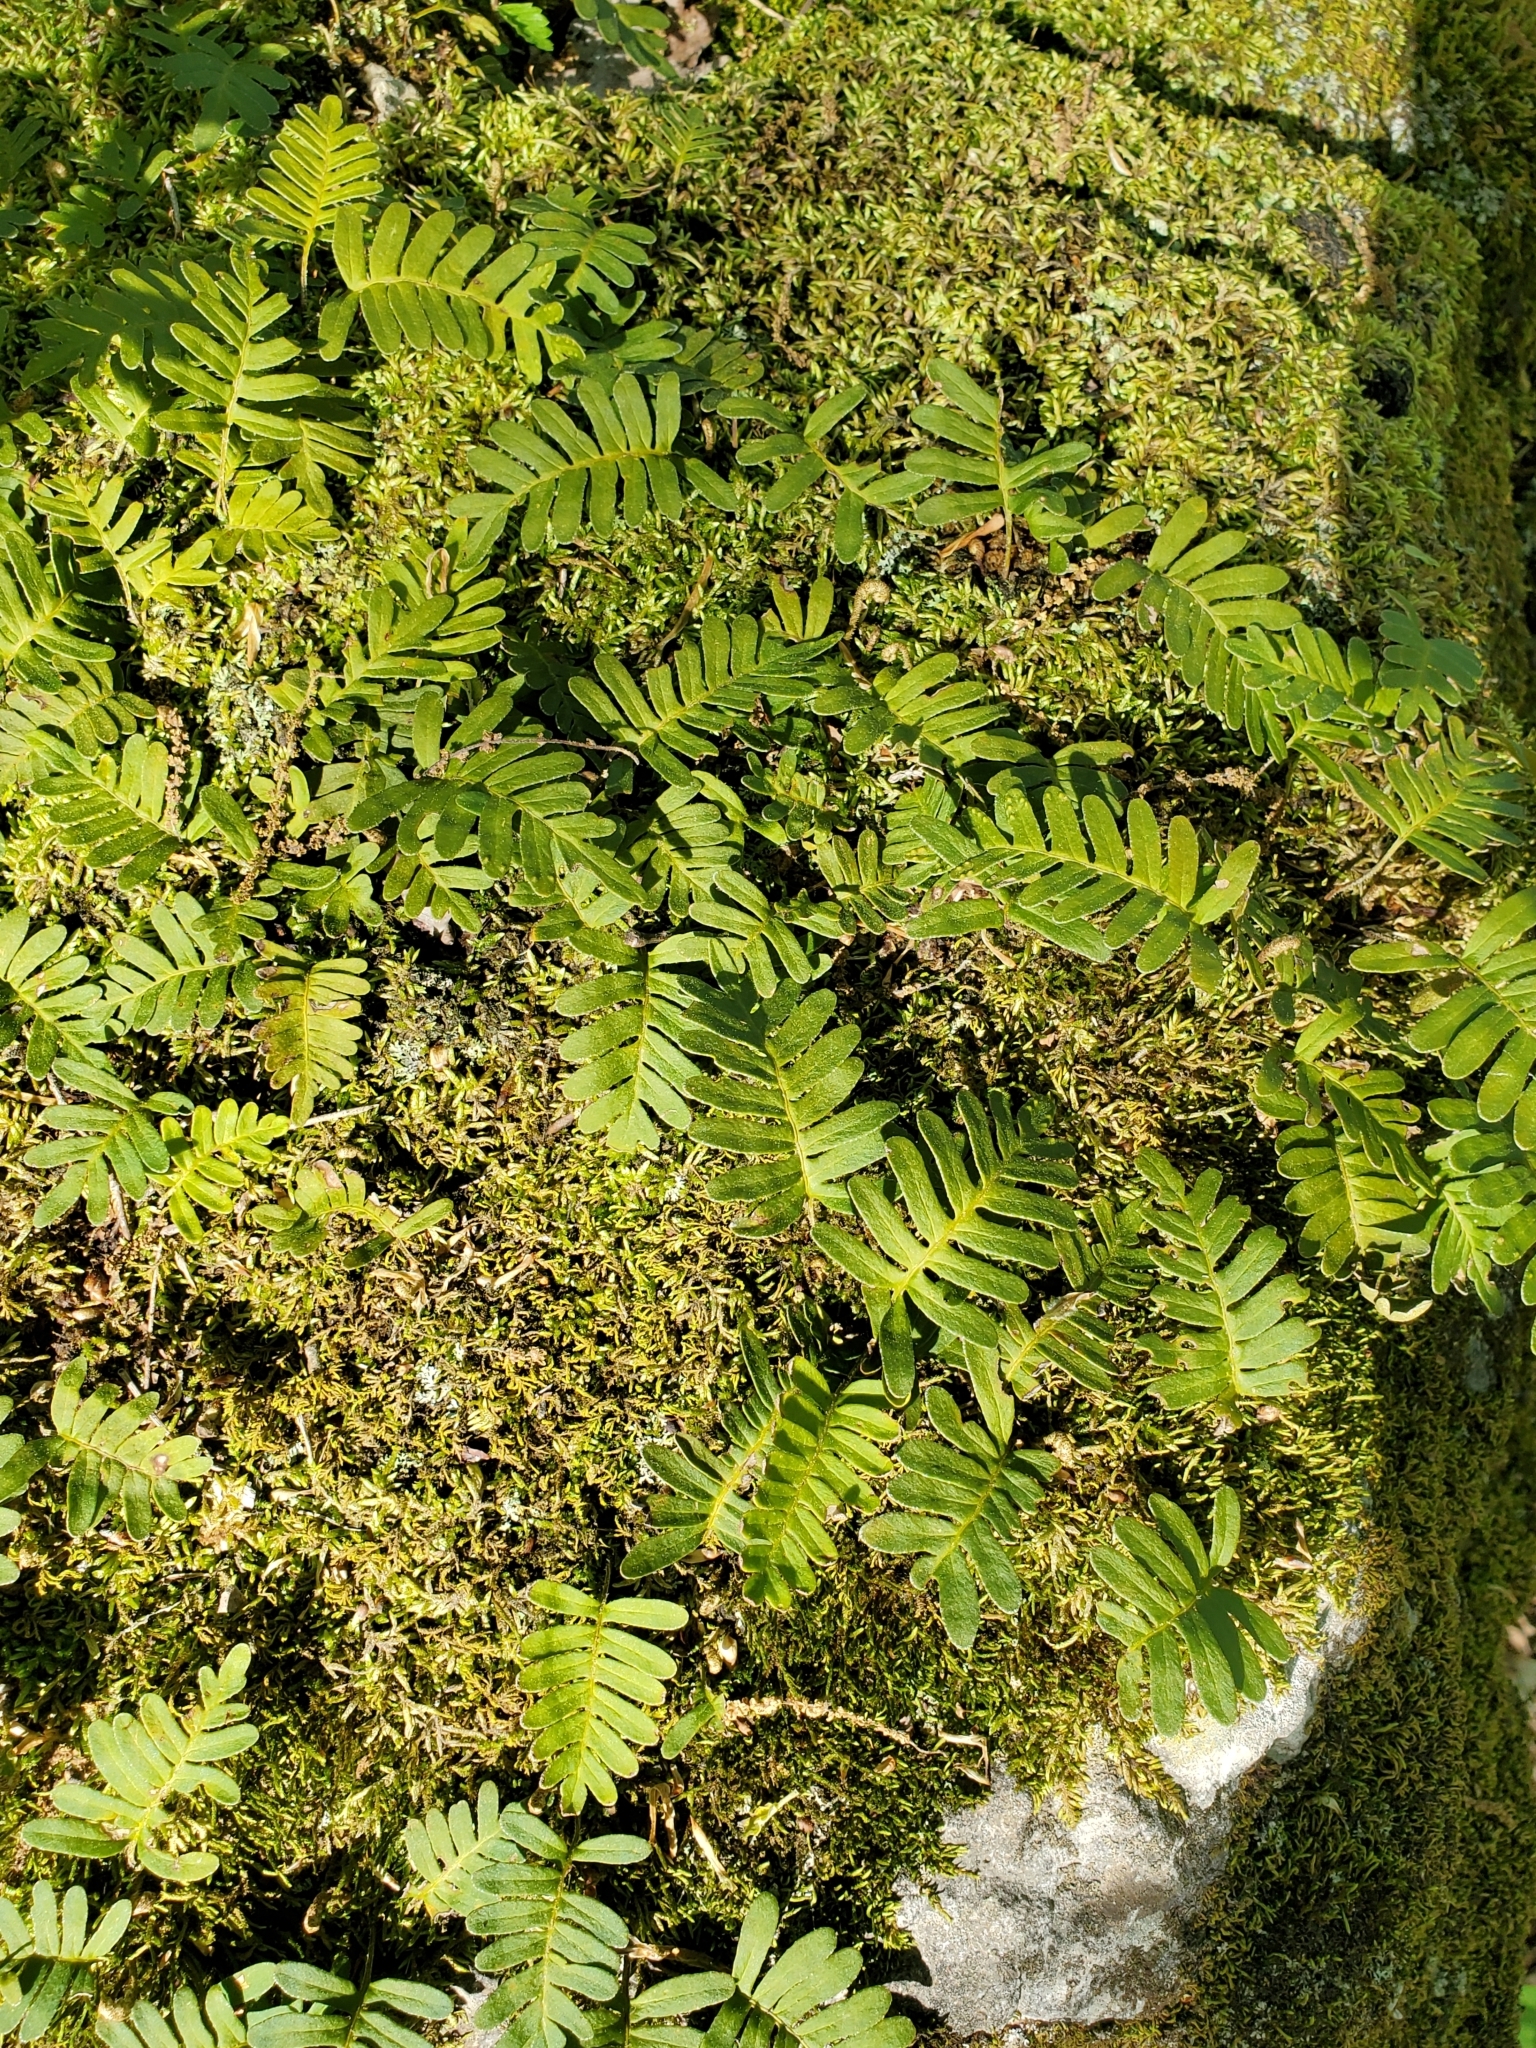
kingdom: Plantae
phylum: Tracheophyta
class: Polypodiopsida
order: Polypodiales
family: Polypodiaceae
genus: Pleopeltis
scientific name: Pleopeltis michauxiana
